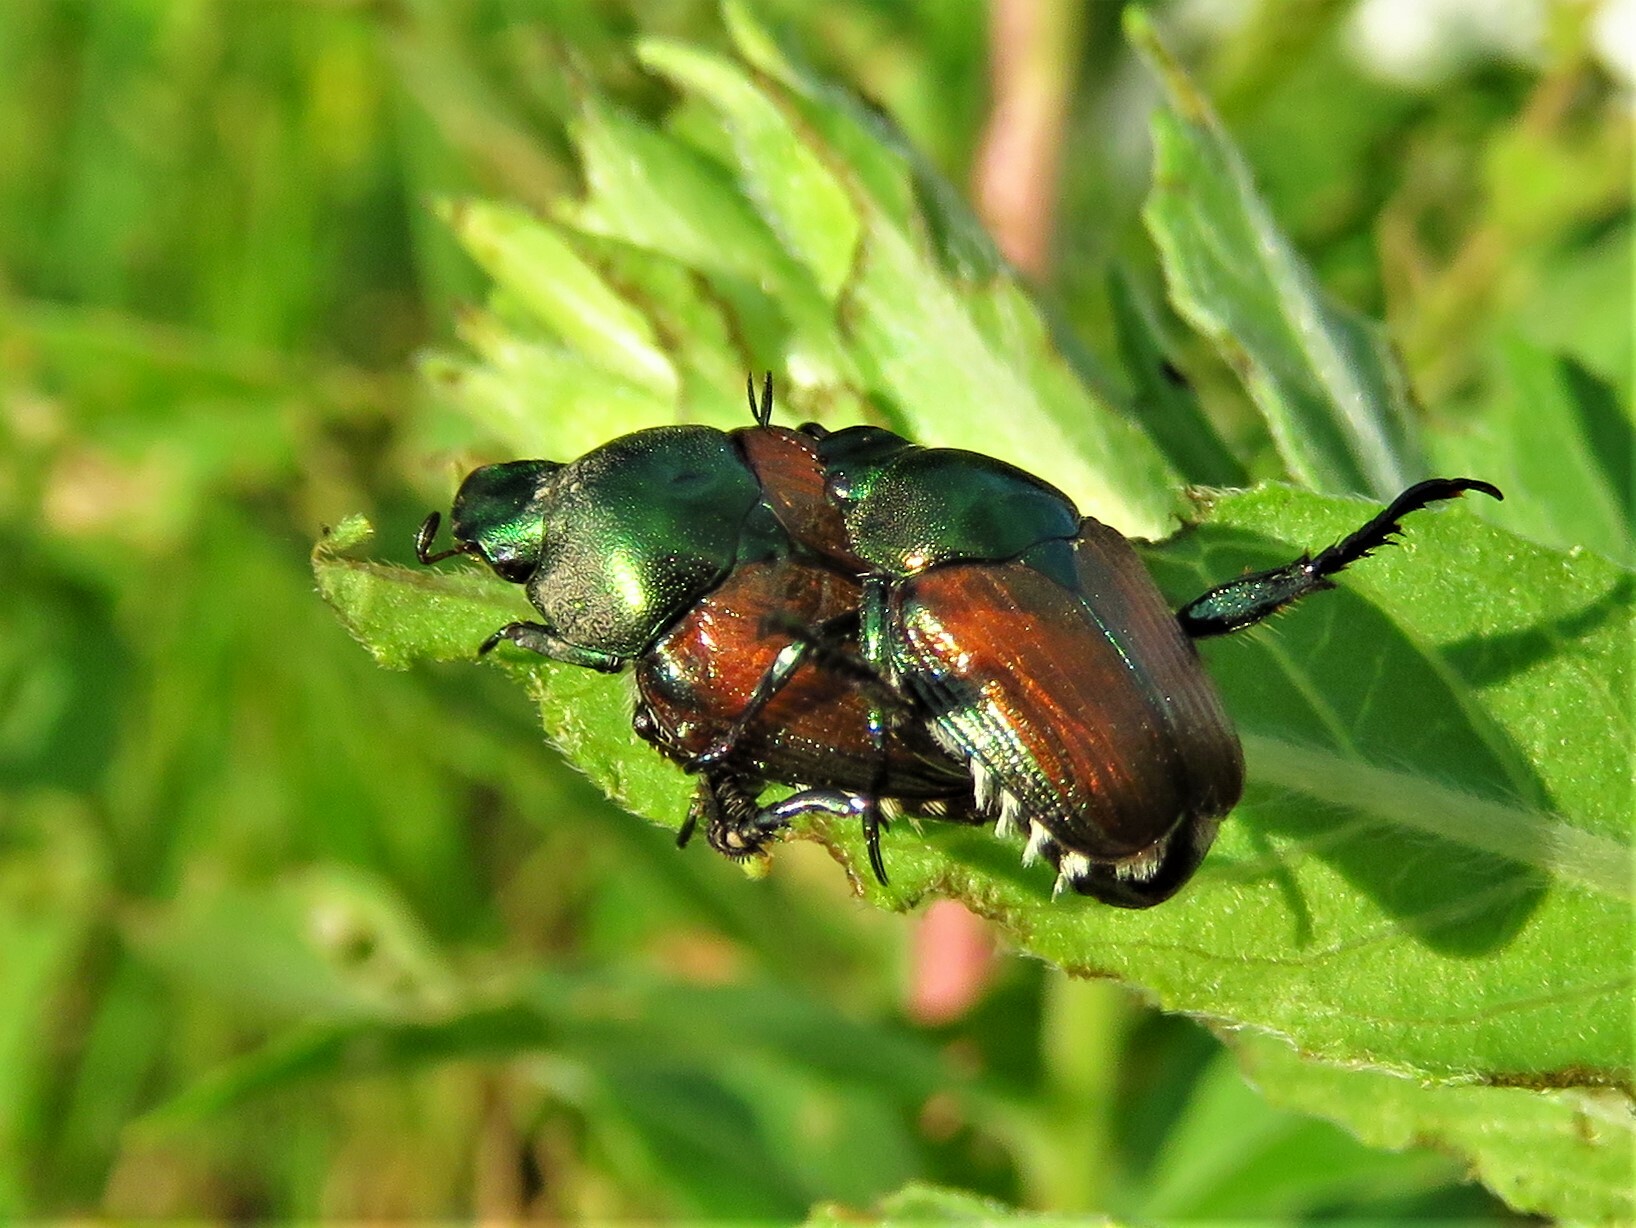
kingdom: Animalia
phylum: Arthropoda
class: Insecta
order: Coleoptera
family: Scarabaeidae
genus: Popillia
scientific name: Popillia japonica
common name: Japanese beetle
